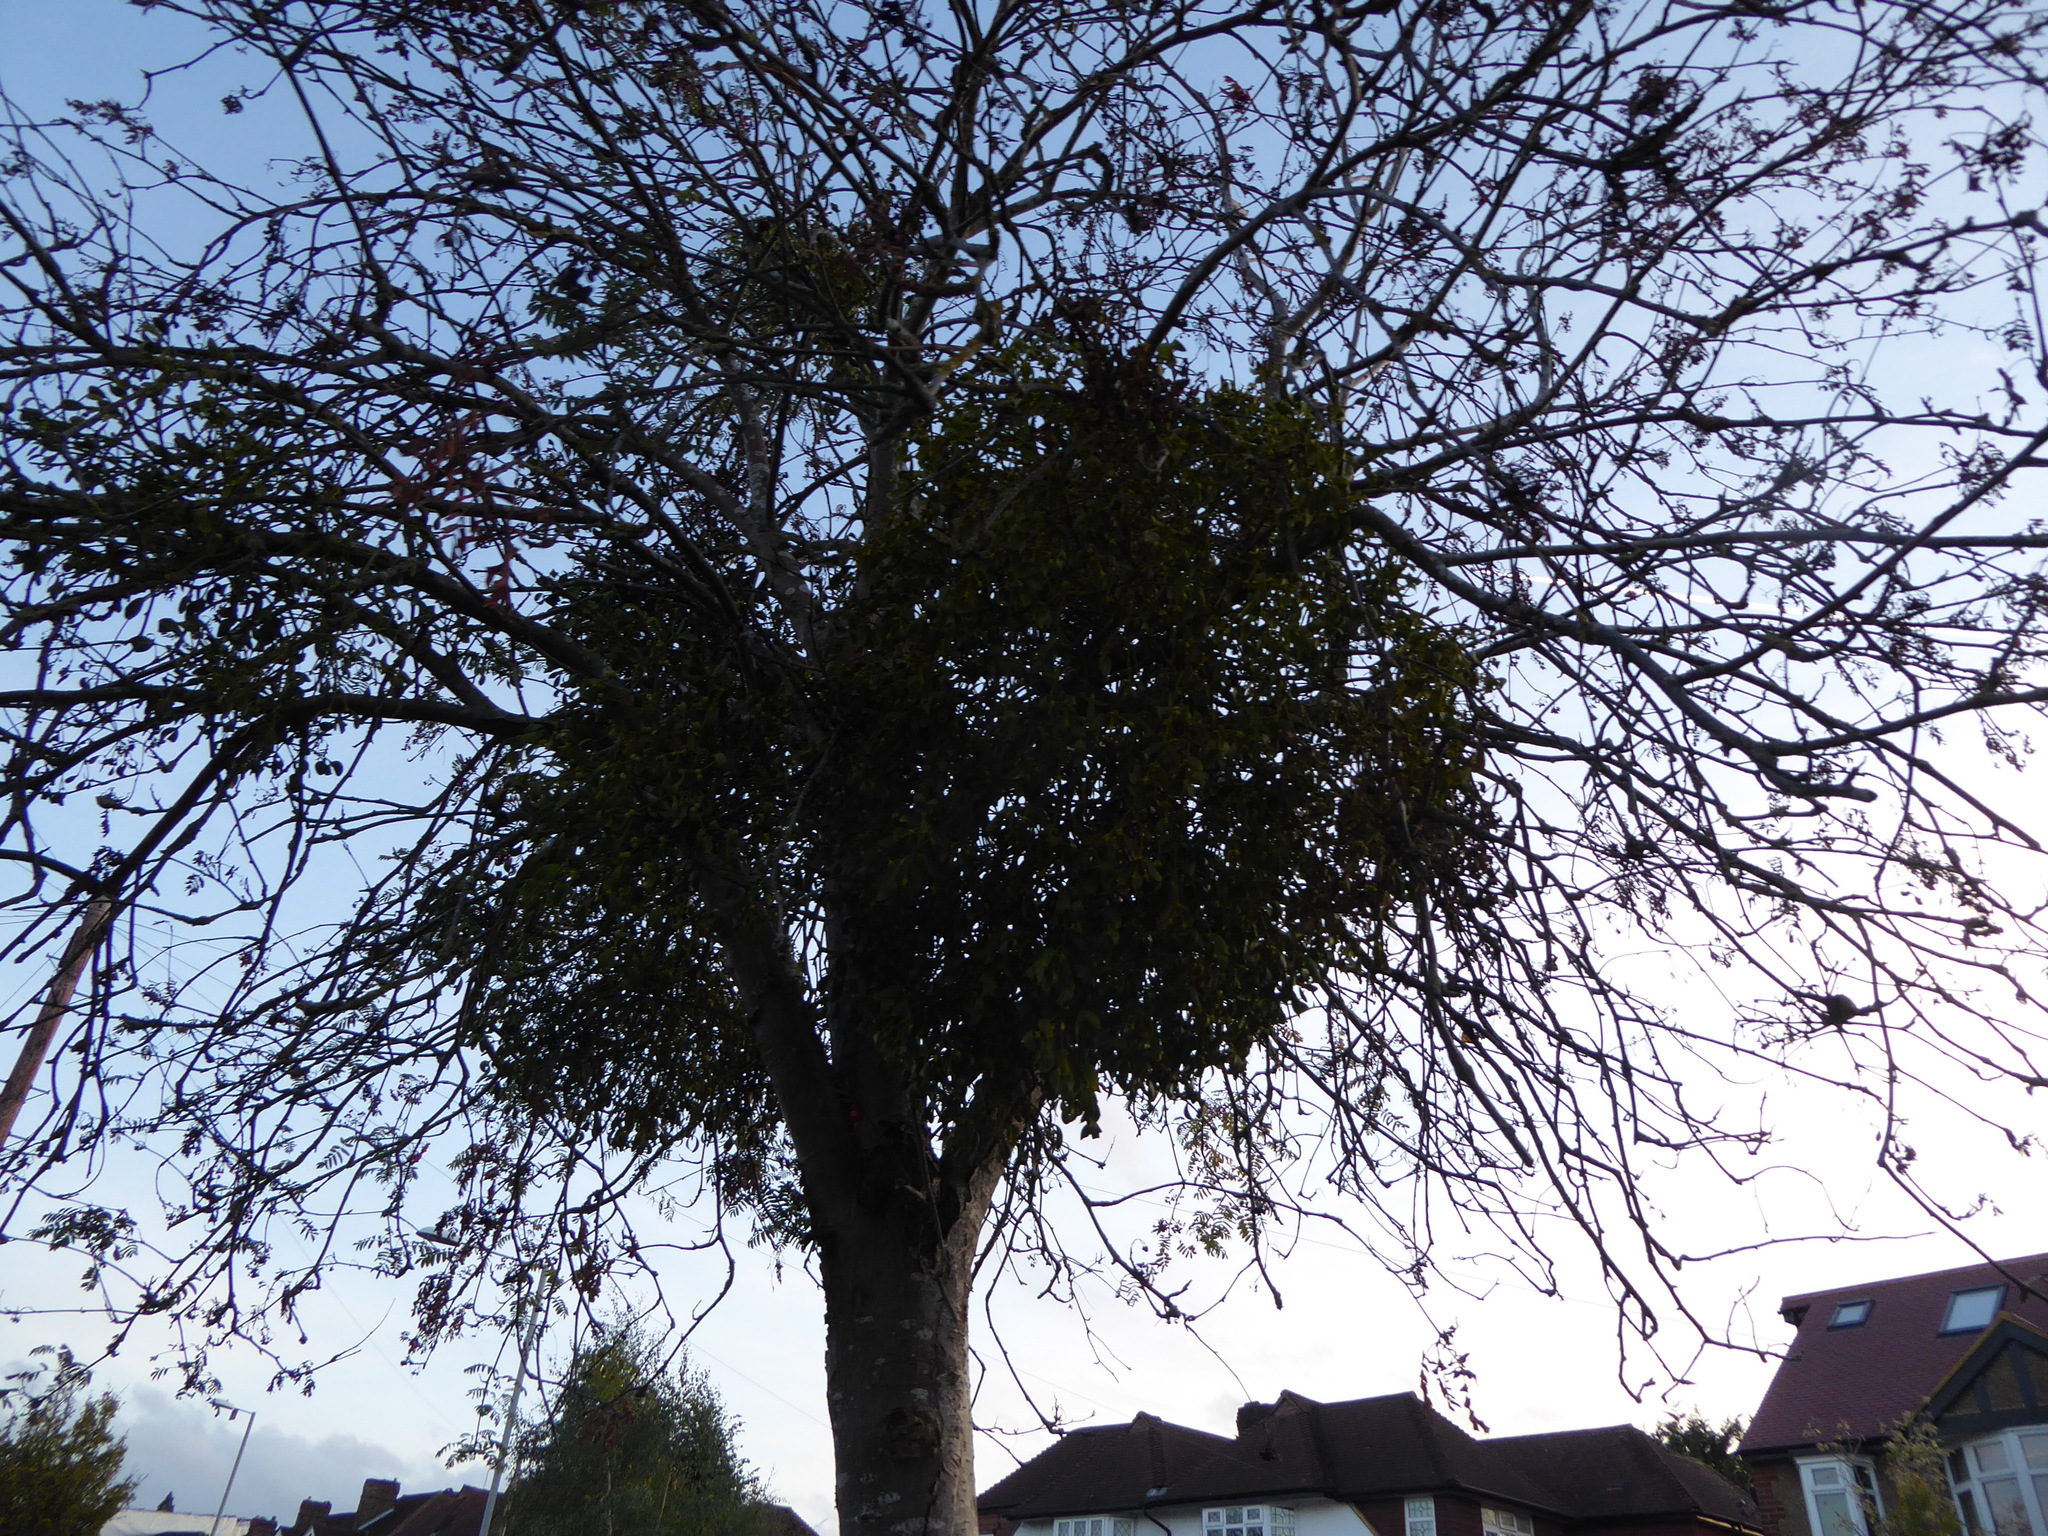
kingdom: Plantae
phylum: Tracheophyta
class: Magnoliopsida
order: Santalales
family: Viscaceae
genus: Viscum
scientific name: Viscum album
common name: Mistletoe
